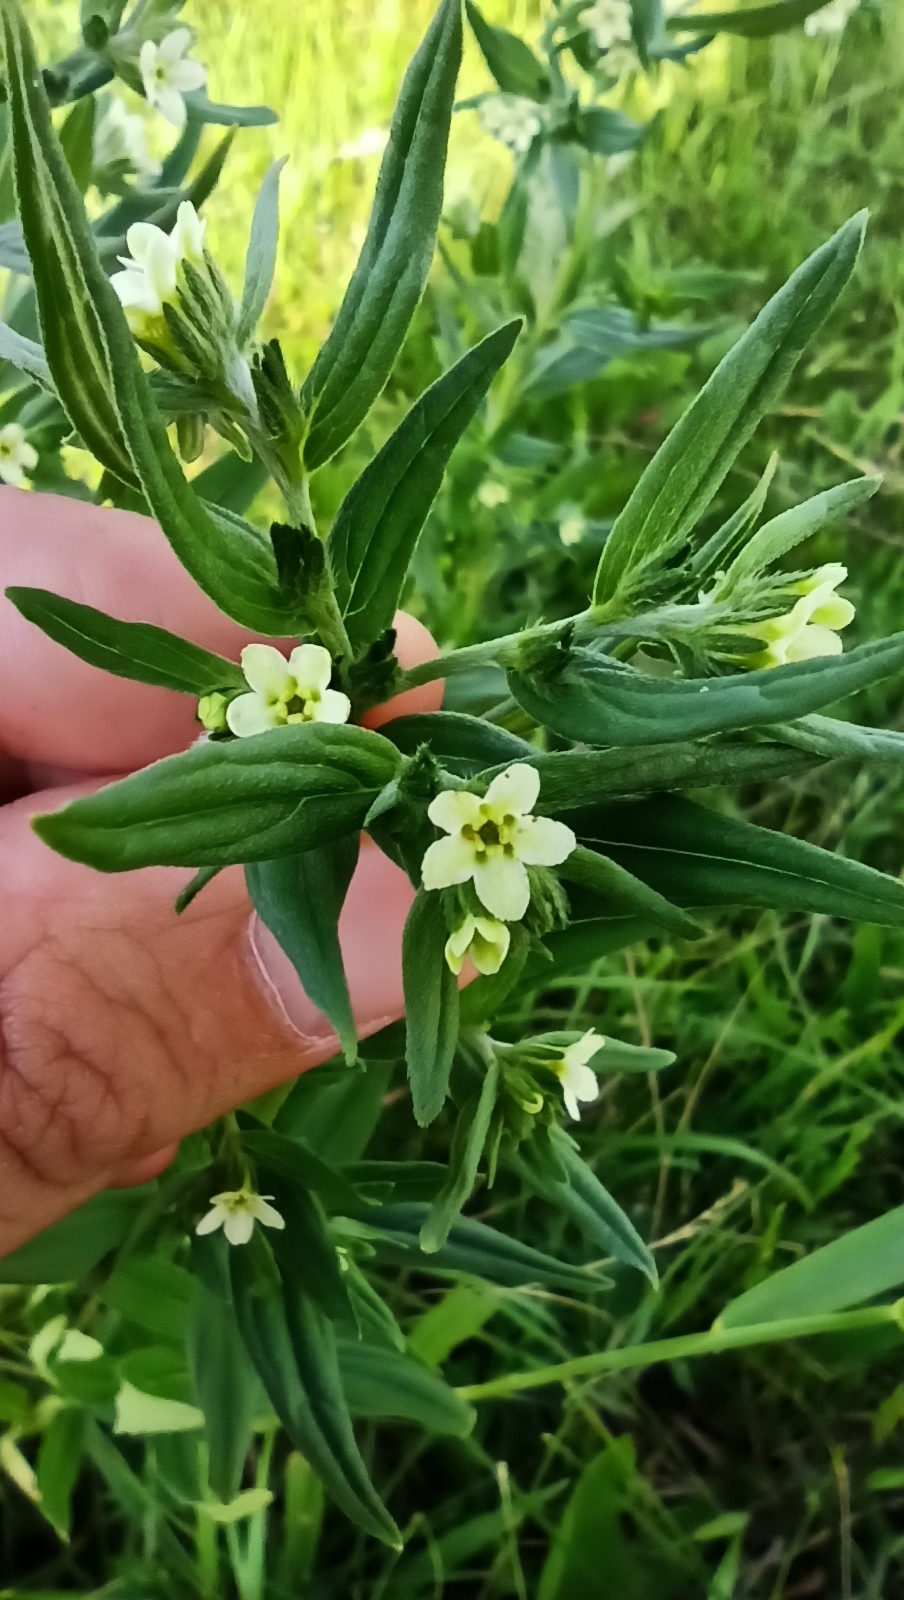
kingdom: Plantae
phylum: Tracheophyta
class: Magnoliopsida
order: Boraginales
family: Boraginaceae
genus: Lithospermum
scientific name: Lithospermum officinale
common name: Common gromwell
